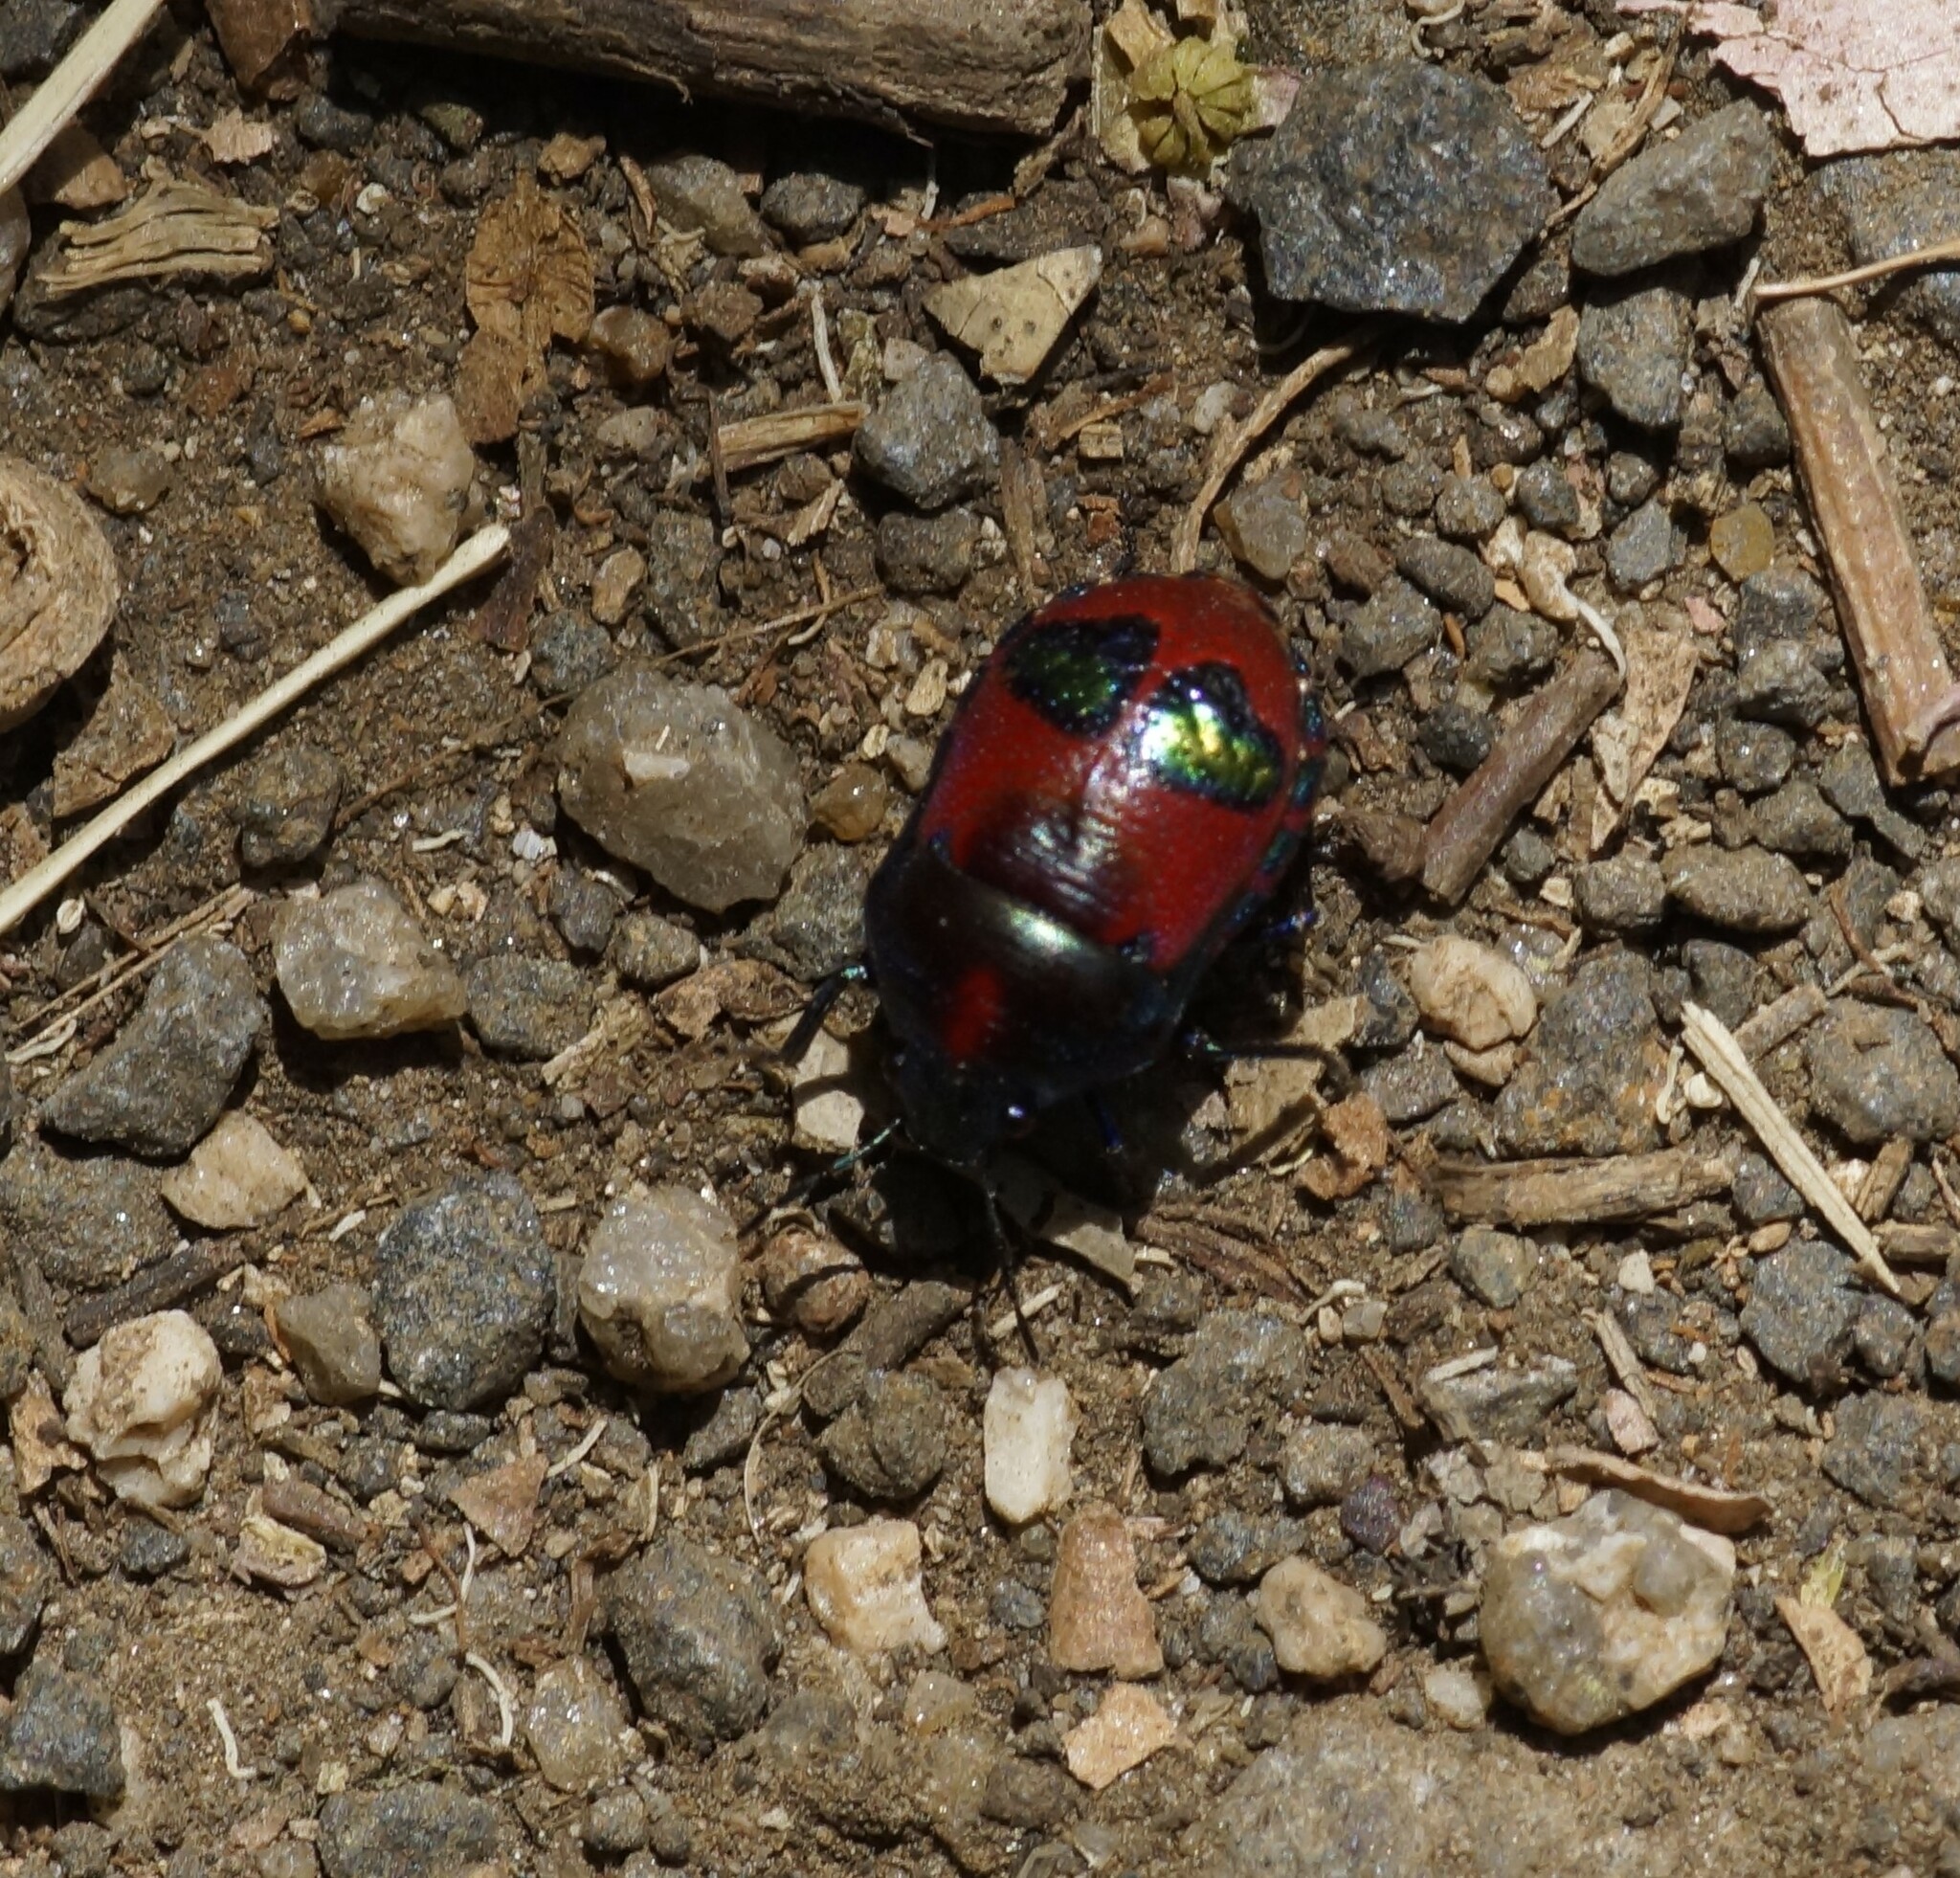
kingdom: Animalia
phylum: Arthropoda
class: Insecta
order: Hemiptera
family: Scutelleridae
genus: Choerocoris
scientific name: Choerocoris paganus
